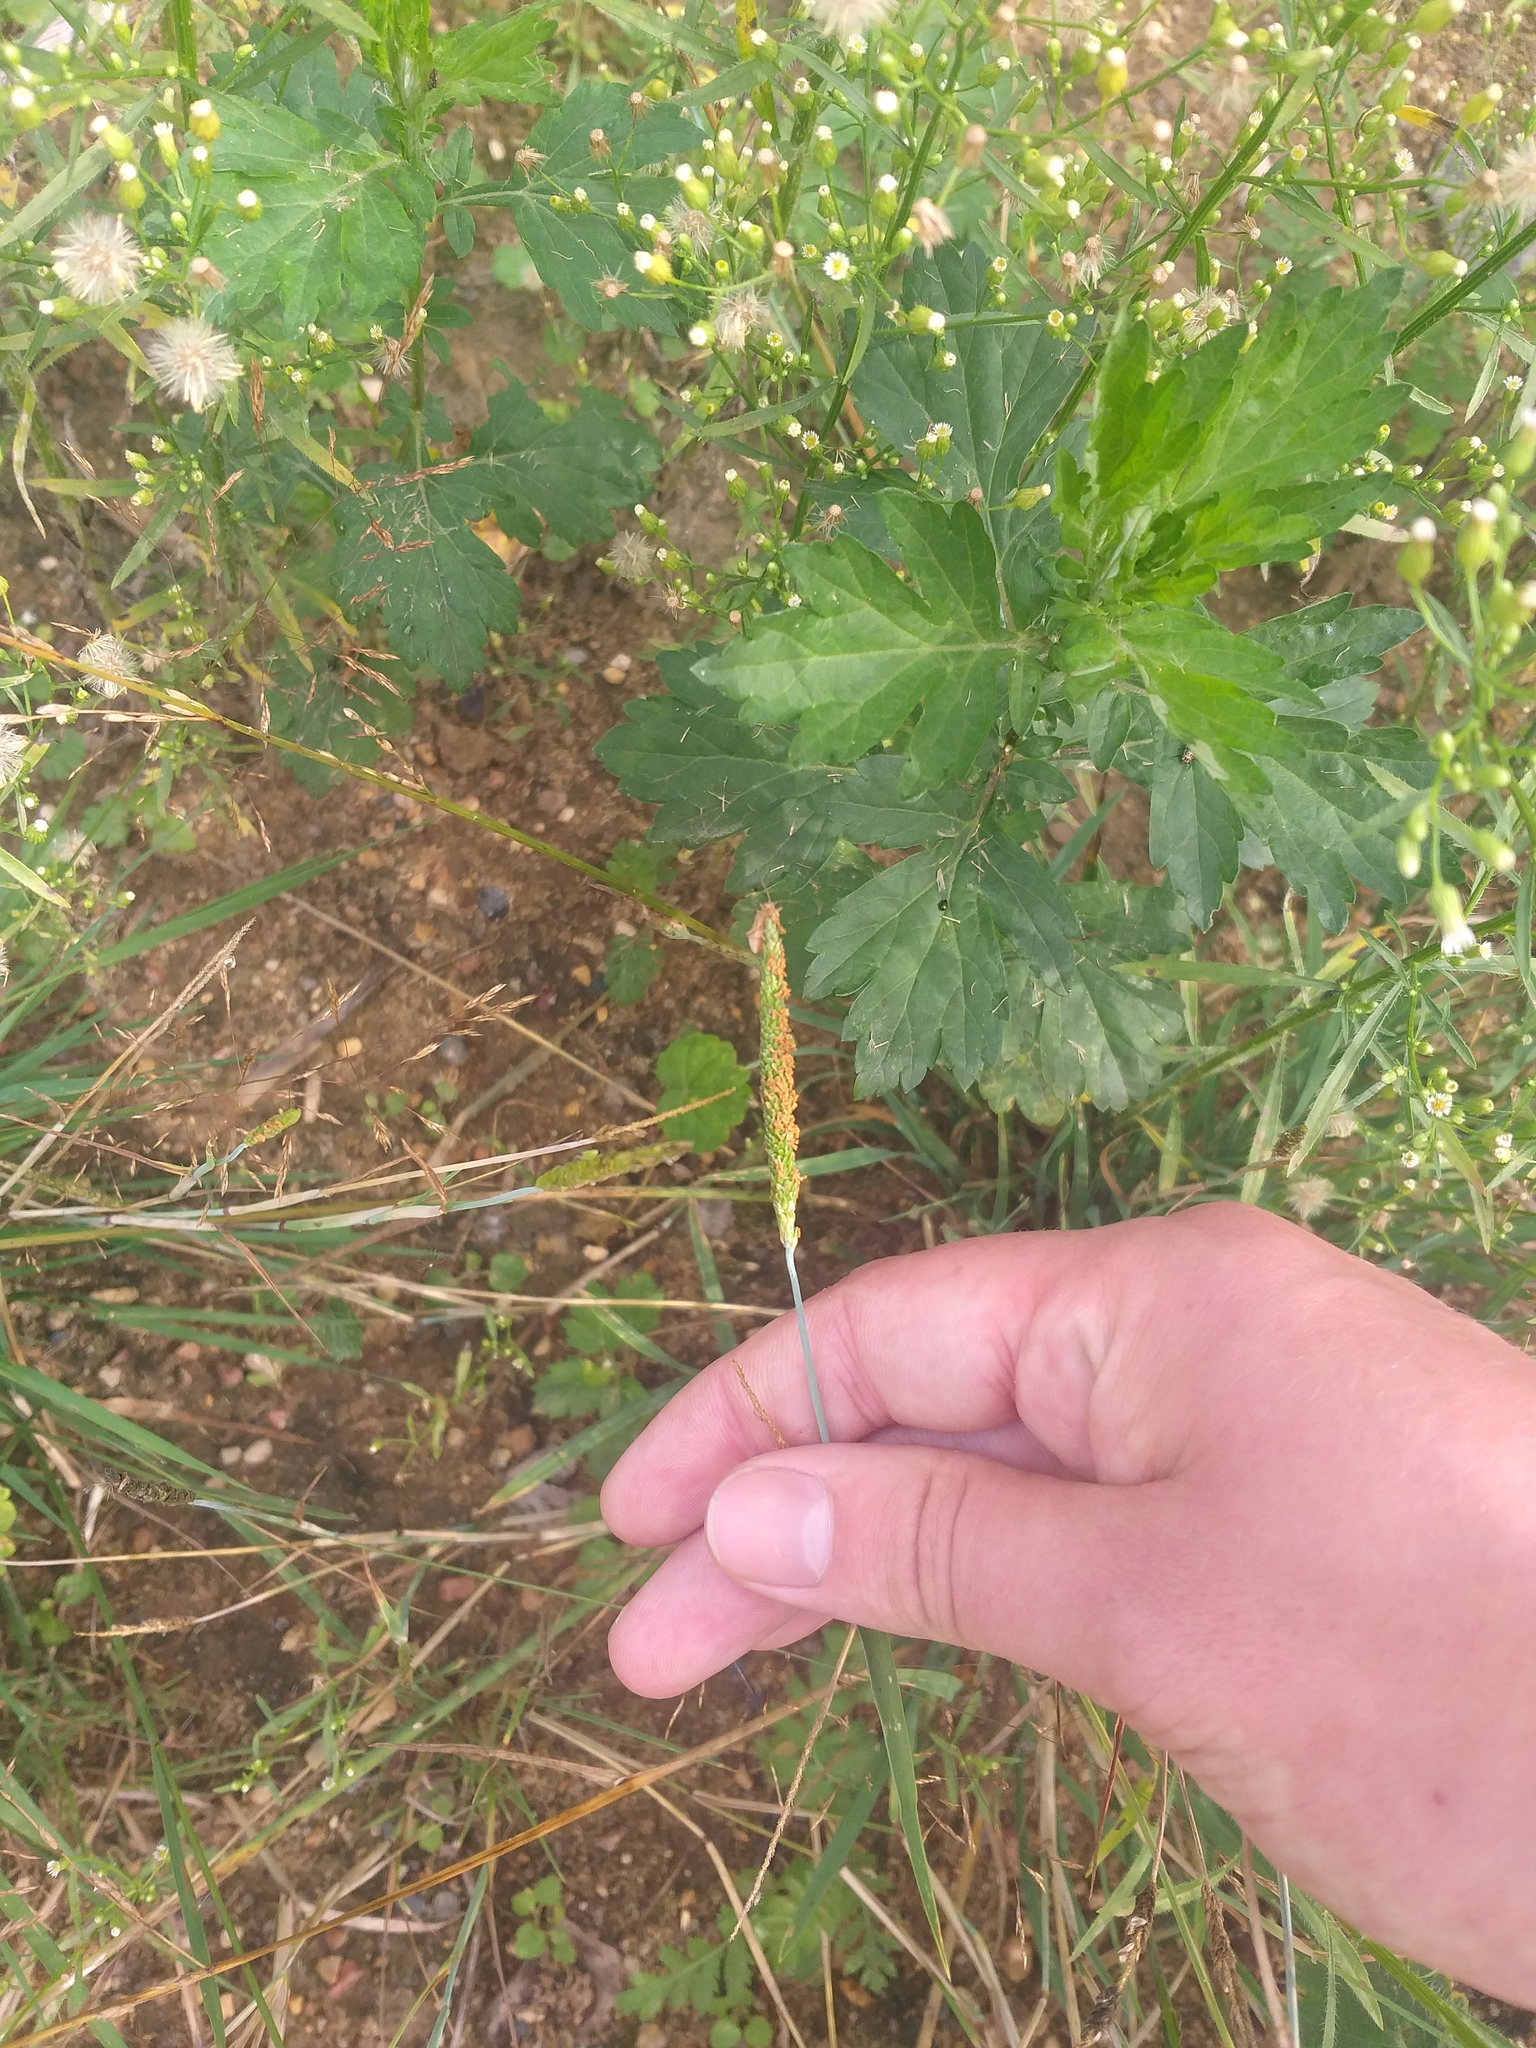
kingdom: Plantae
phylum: Tracheophyta
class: Liliopsida
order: Poales
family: Poaceae
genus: Alopecurus
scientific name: Alopecurus aequalis
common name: Orange foxtail
